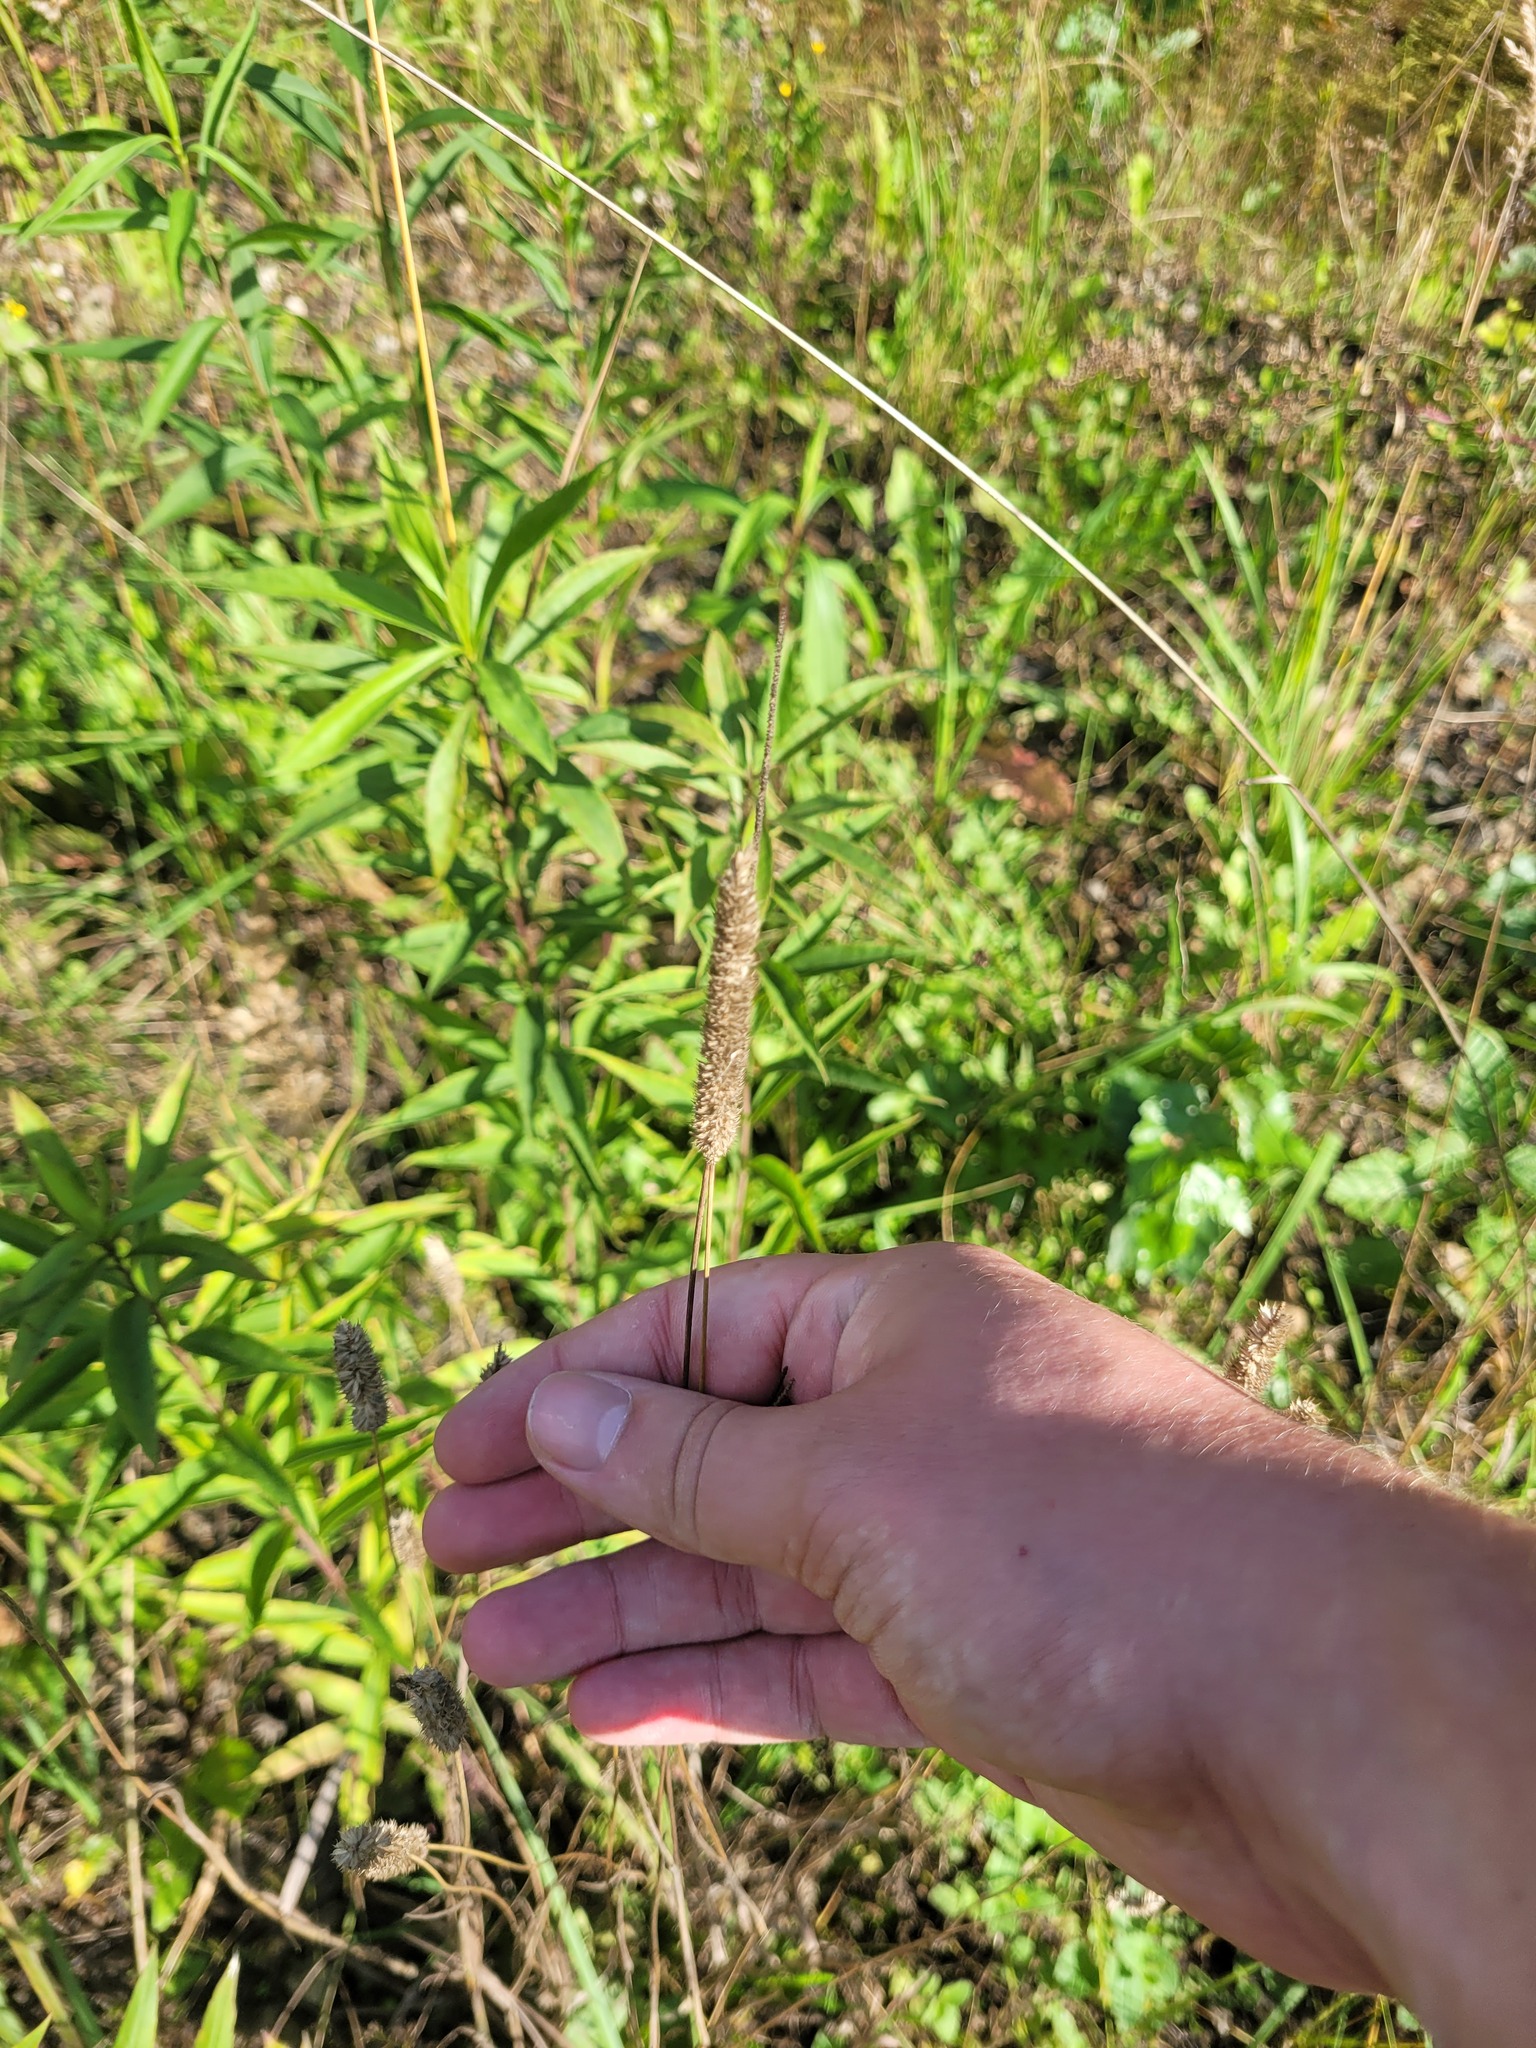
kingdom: Plantae
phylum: Tracheophyta
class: Liliopsida
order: Poales
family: Poaceae
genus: Phleum
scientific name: Phleum pratense
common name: Timothy grass
